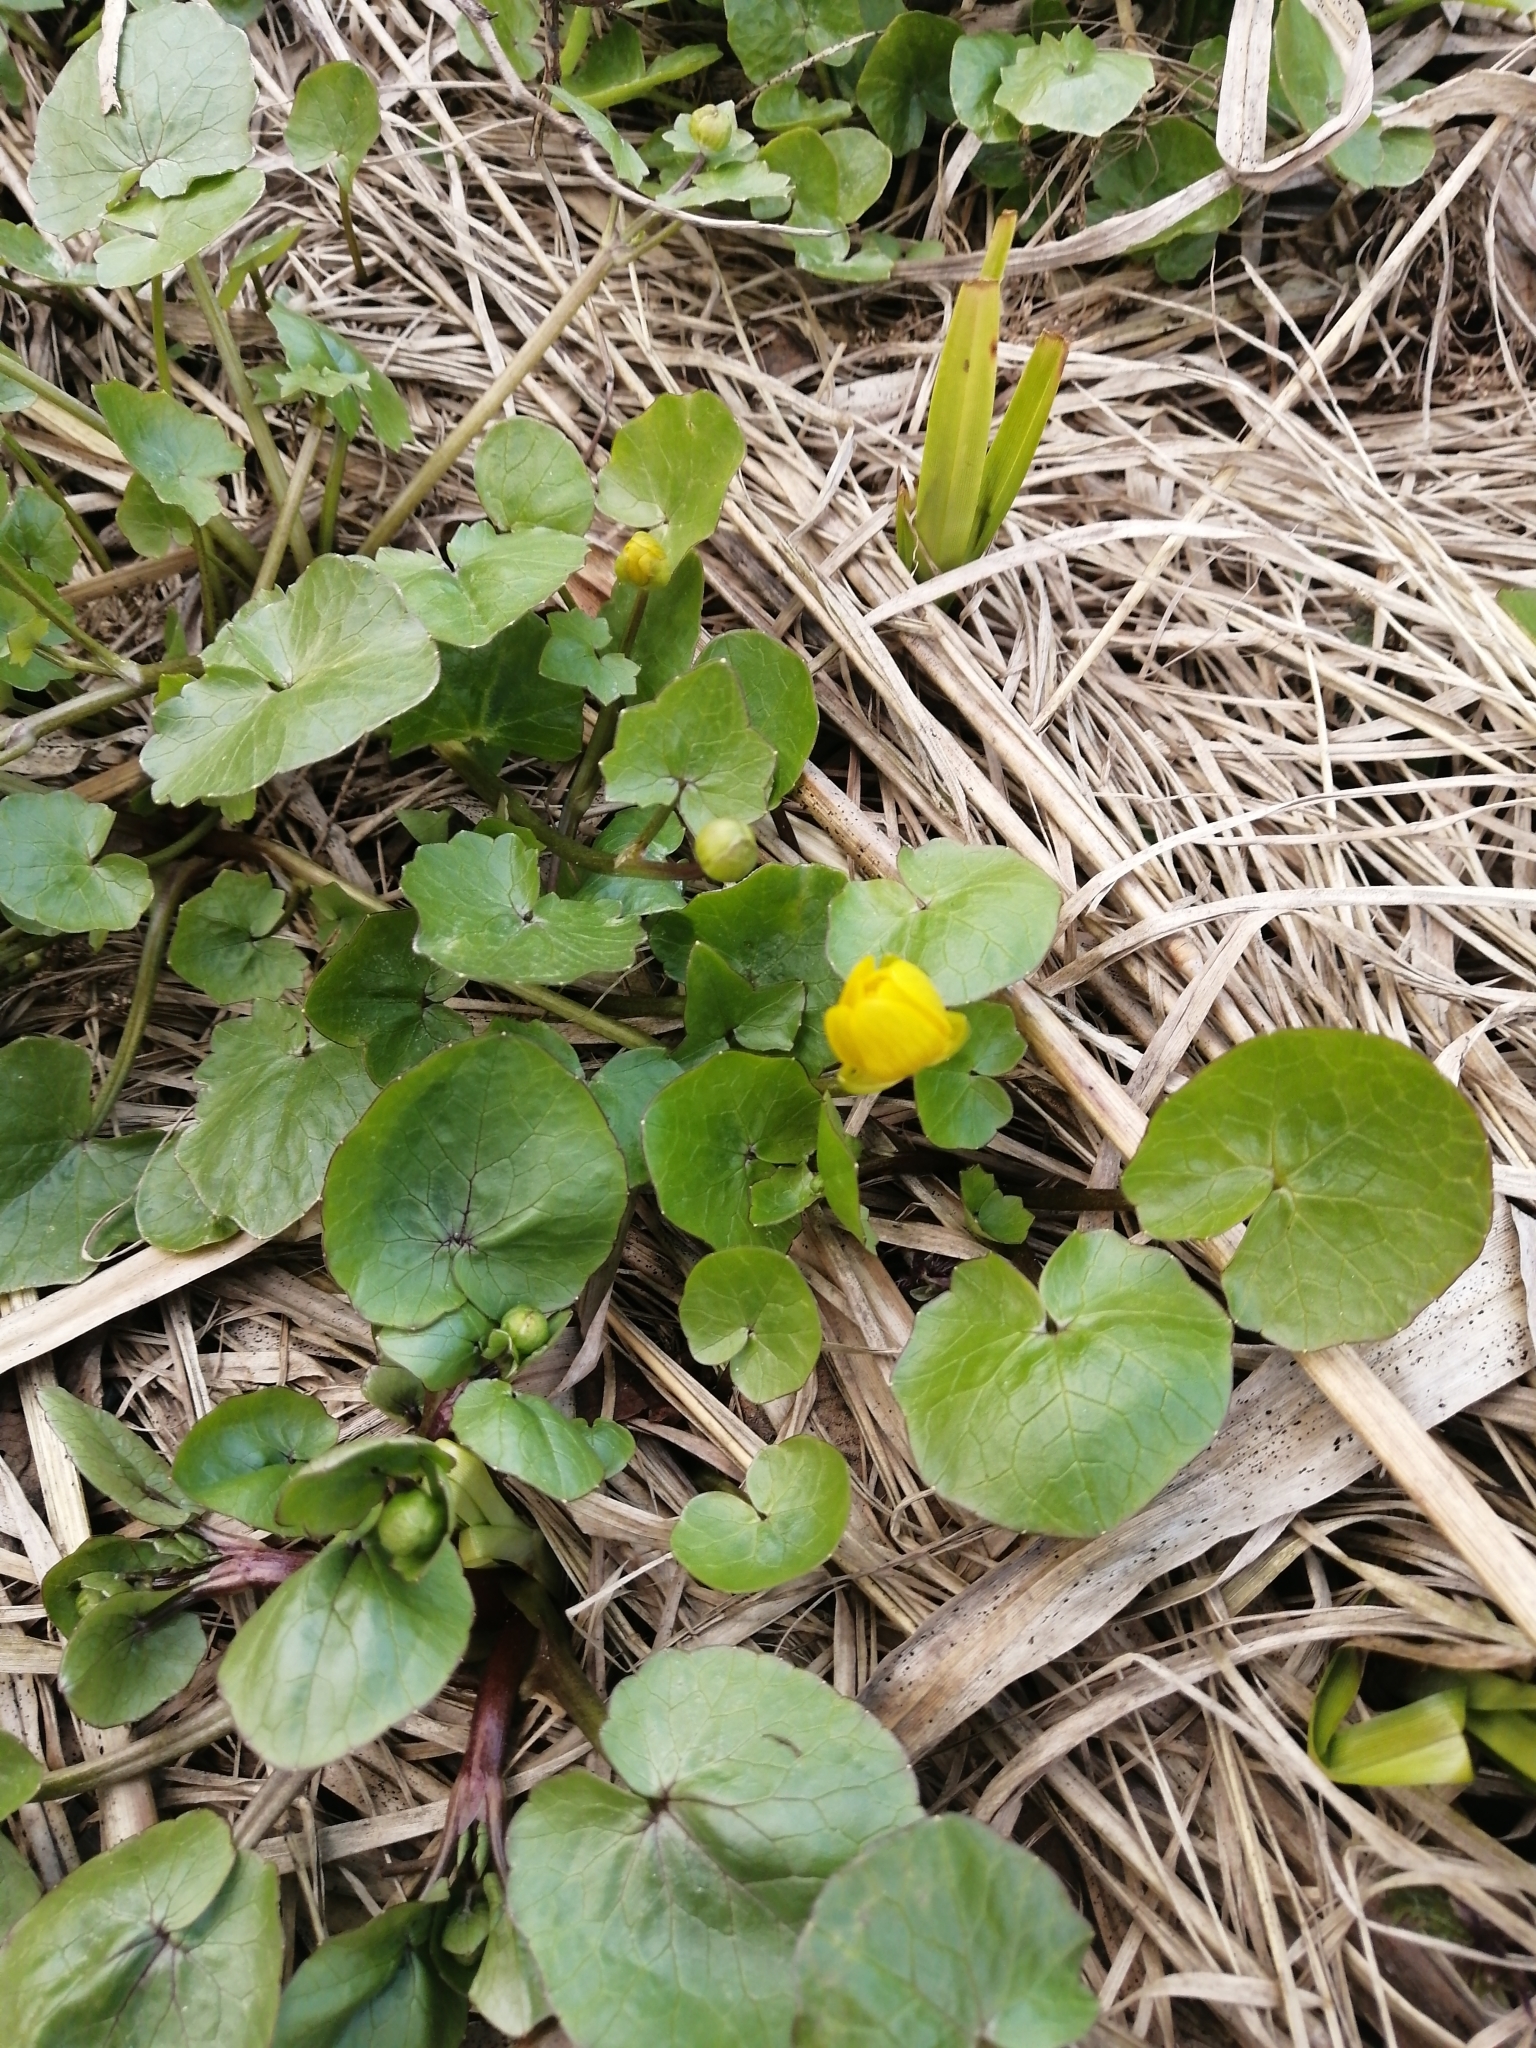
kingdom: Plantae
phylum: Tracheophyta
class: Magnoliopsida
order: Ranunculales
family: Ranunculaceae
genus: Ficaria
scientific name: Ficaria verna
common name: Lesser celandine
